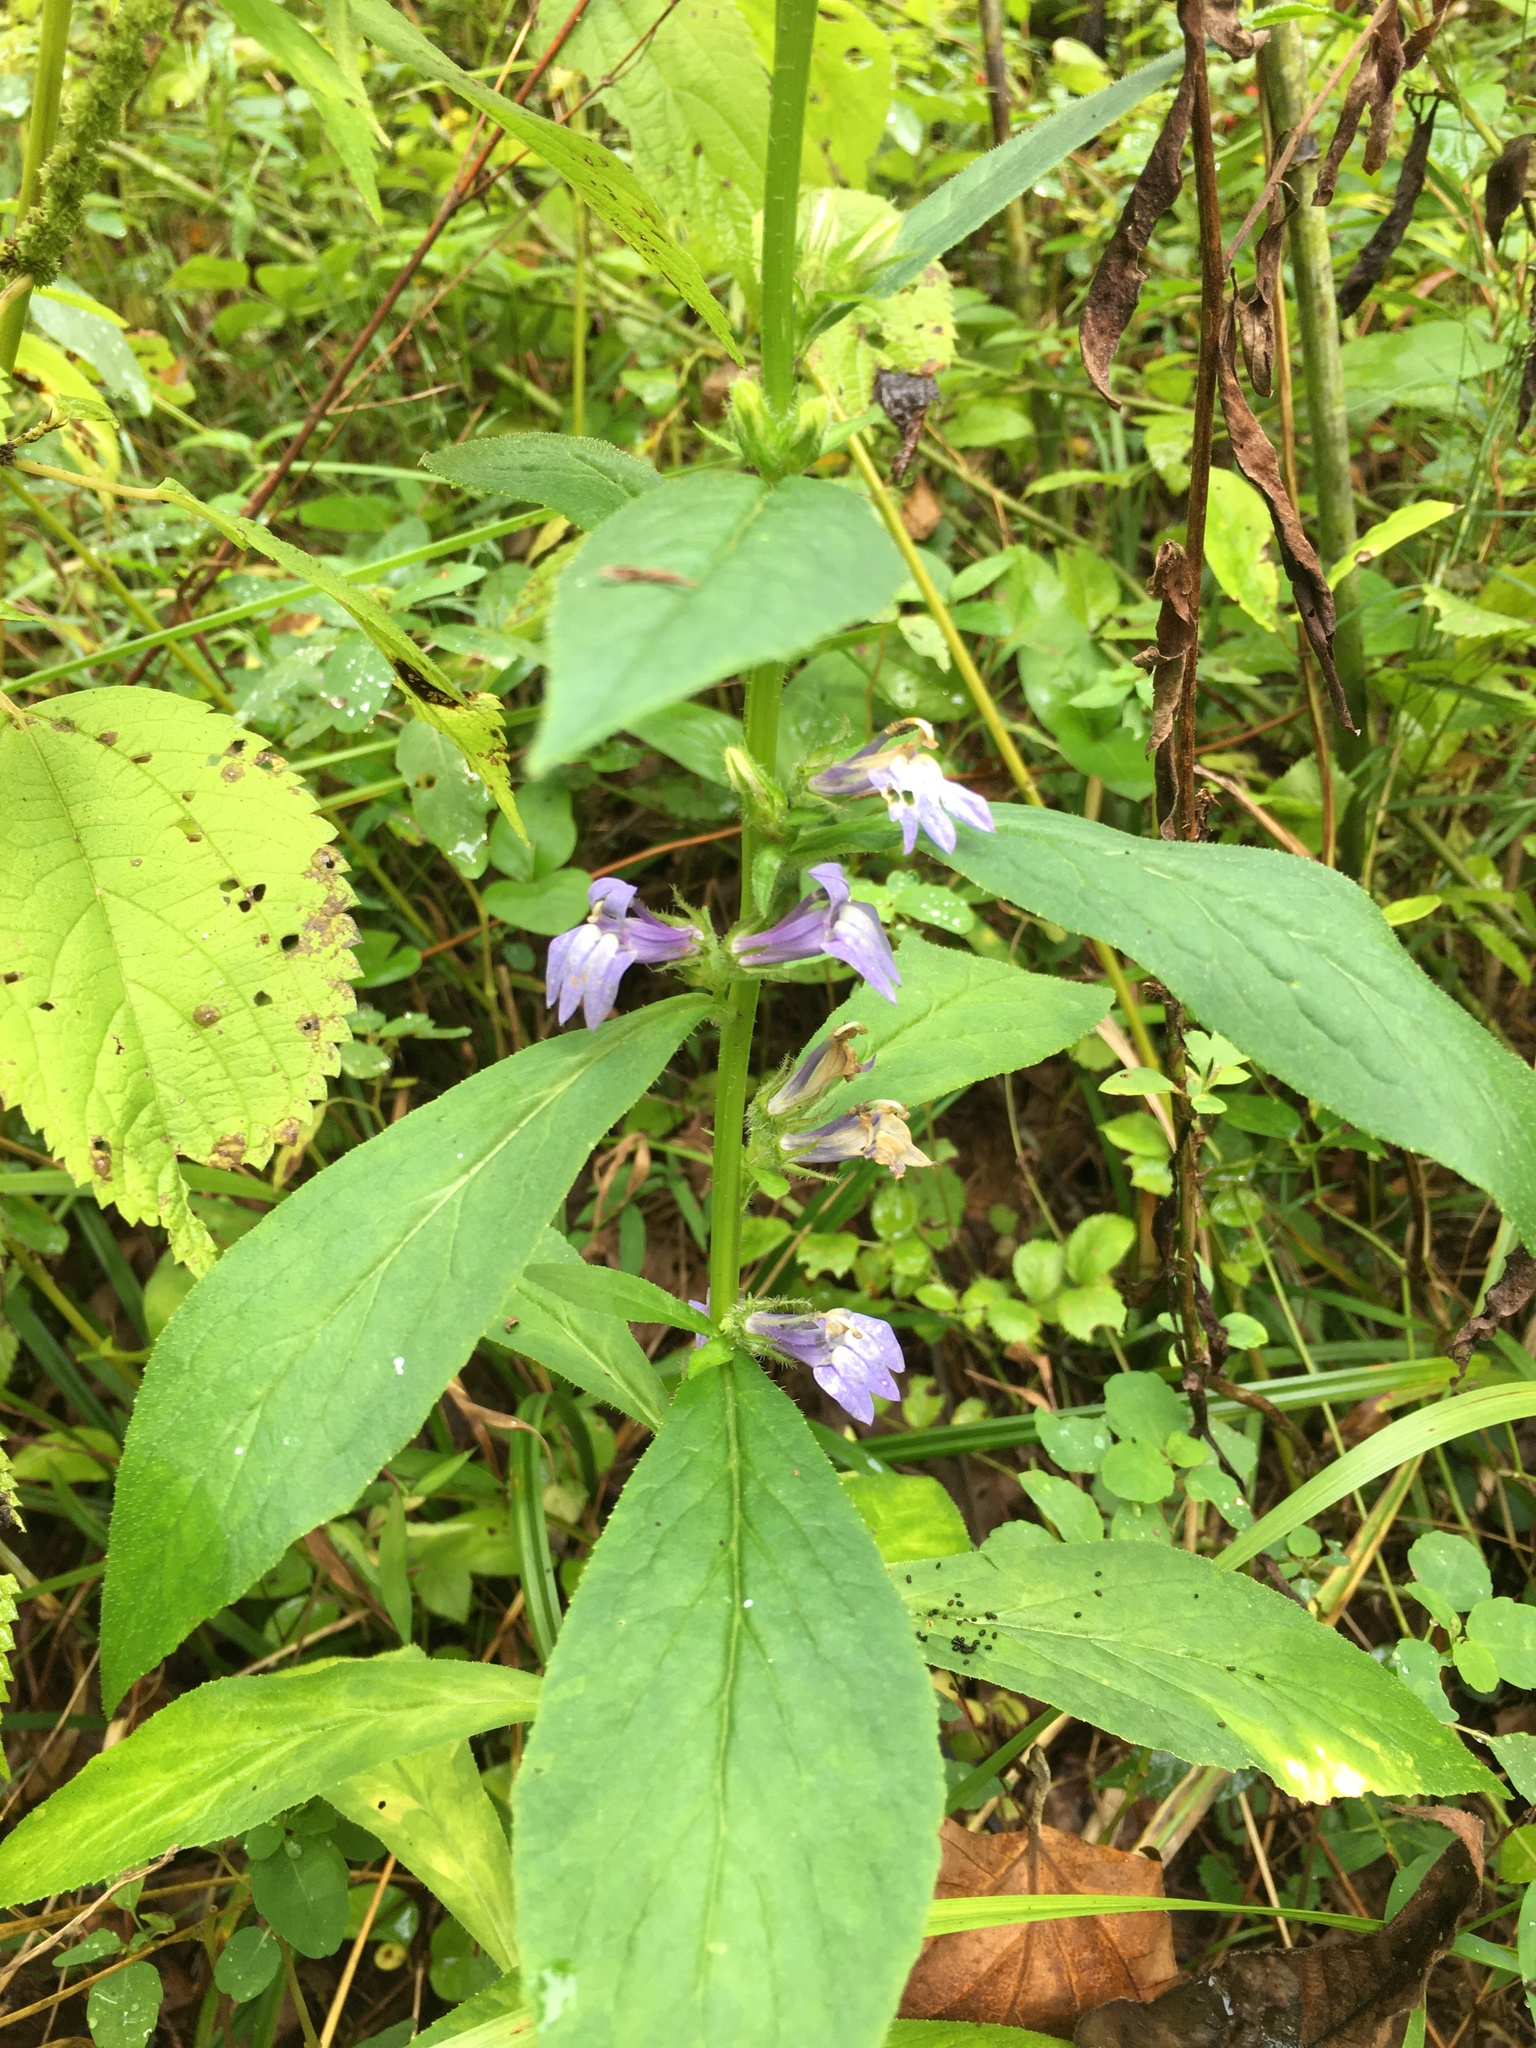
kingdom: Plantae
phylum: Tracheophyta
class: Magnoliopsida
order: Asterales
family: Campanulaceae
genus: Lobelia
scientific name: Lobelia siphilitica
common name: Great lobelia
